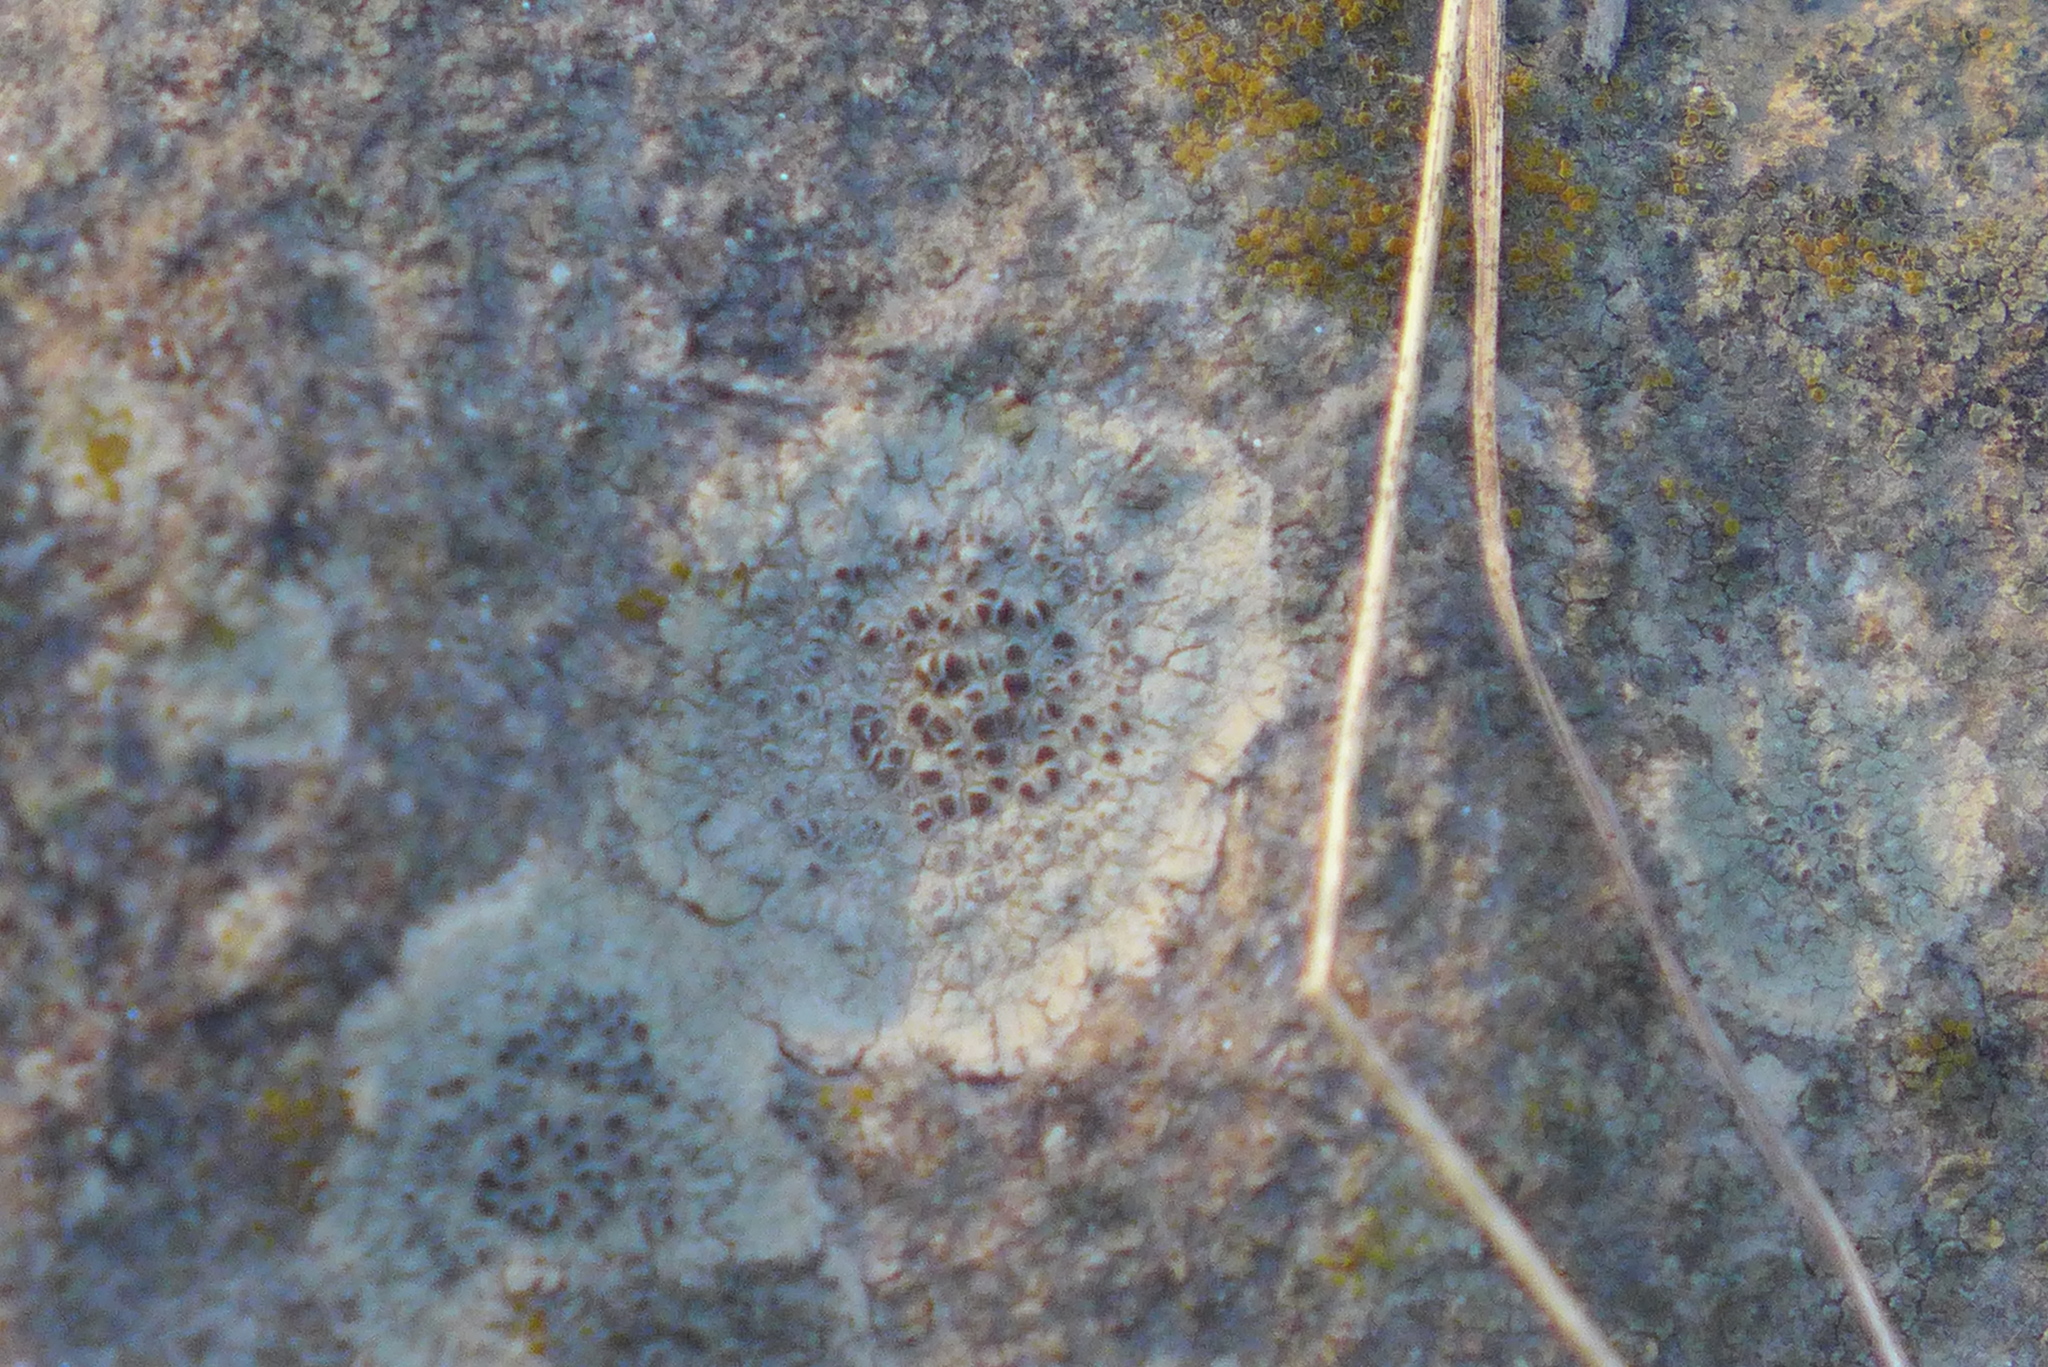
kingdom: Fungi
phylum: Ascomycota
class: Lecanoromycetes
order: Lecanorales
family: Lecanoraceae
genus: Lecanora
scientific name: Lecanora subimmergens
